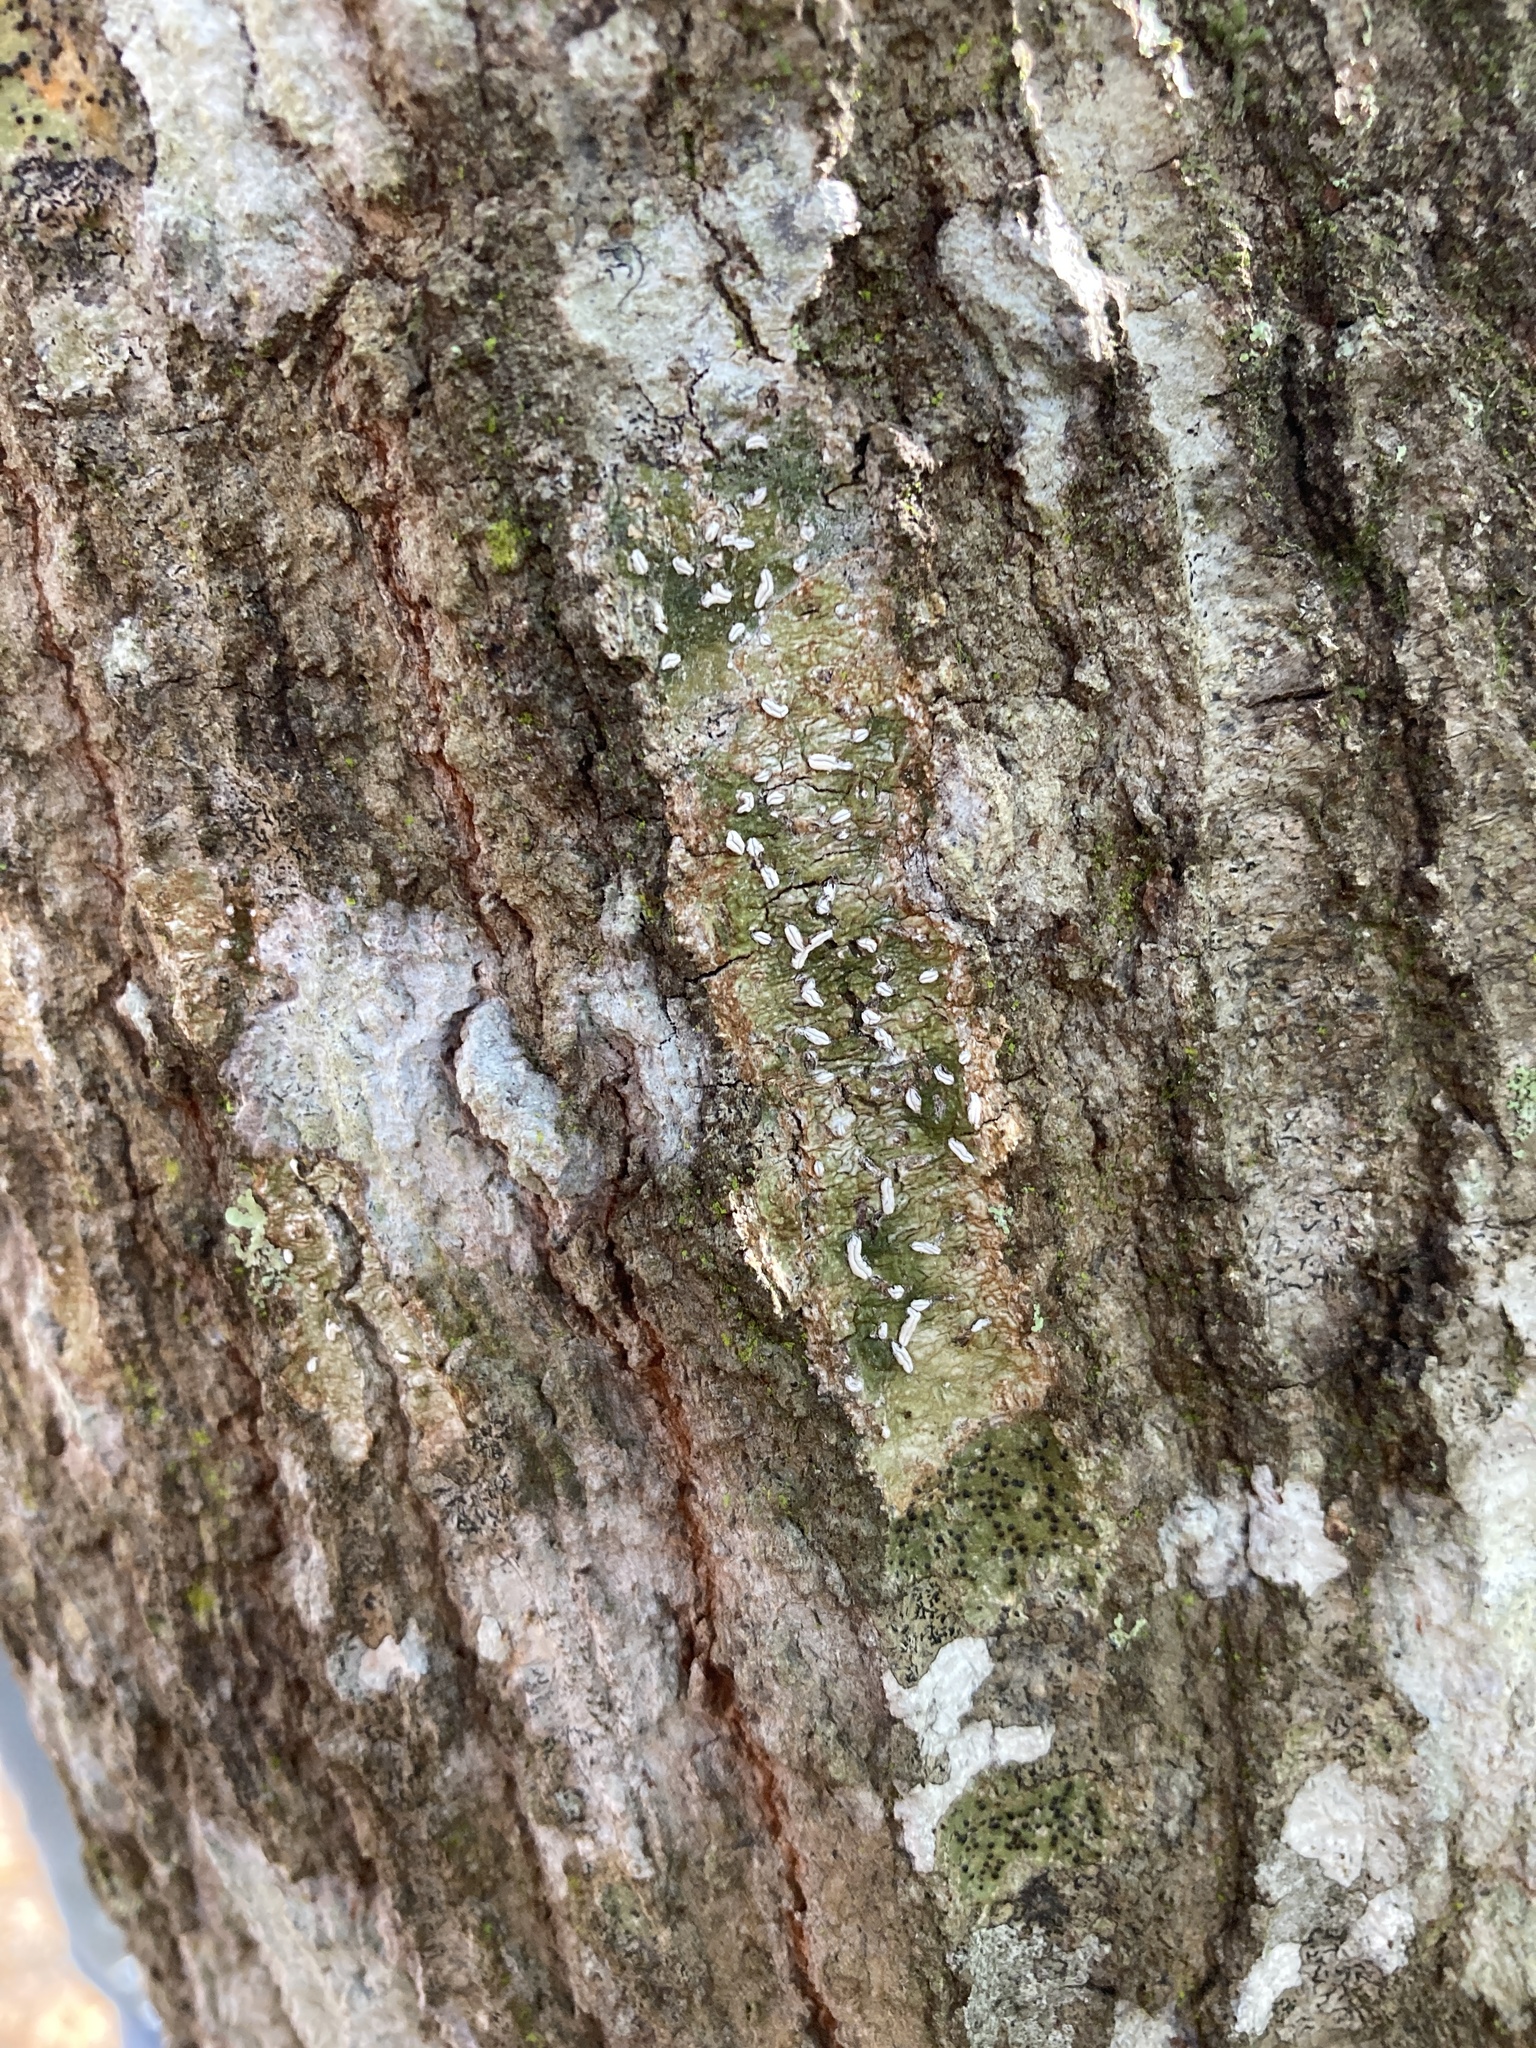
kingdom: Fungi
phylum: Ascomycota
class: Lecanoromycetes
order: Ostropales
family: Graphidaceae
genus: Dyplolabia
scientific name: Dyplolabia afzelii
